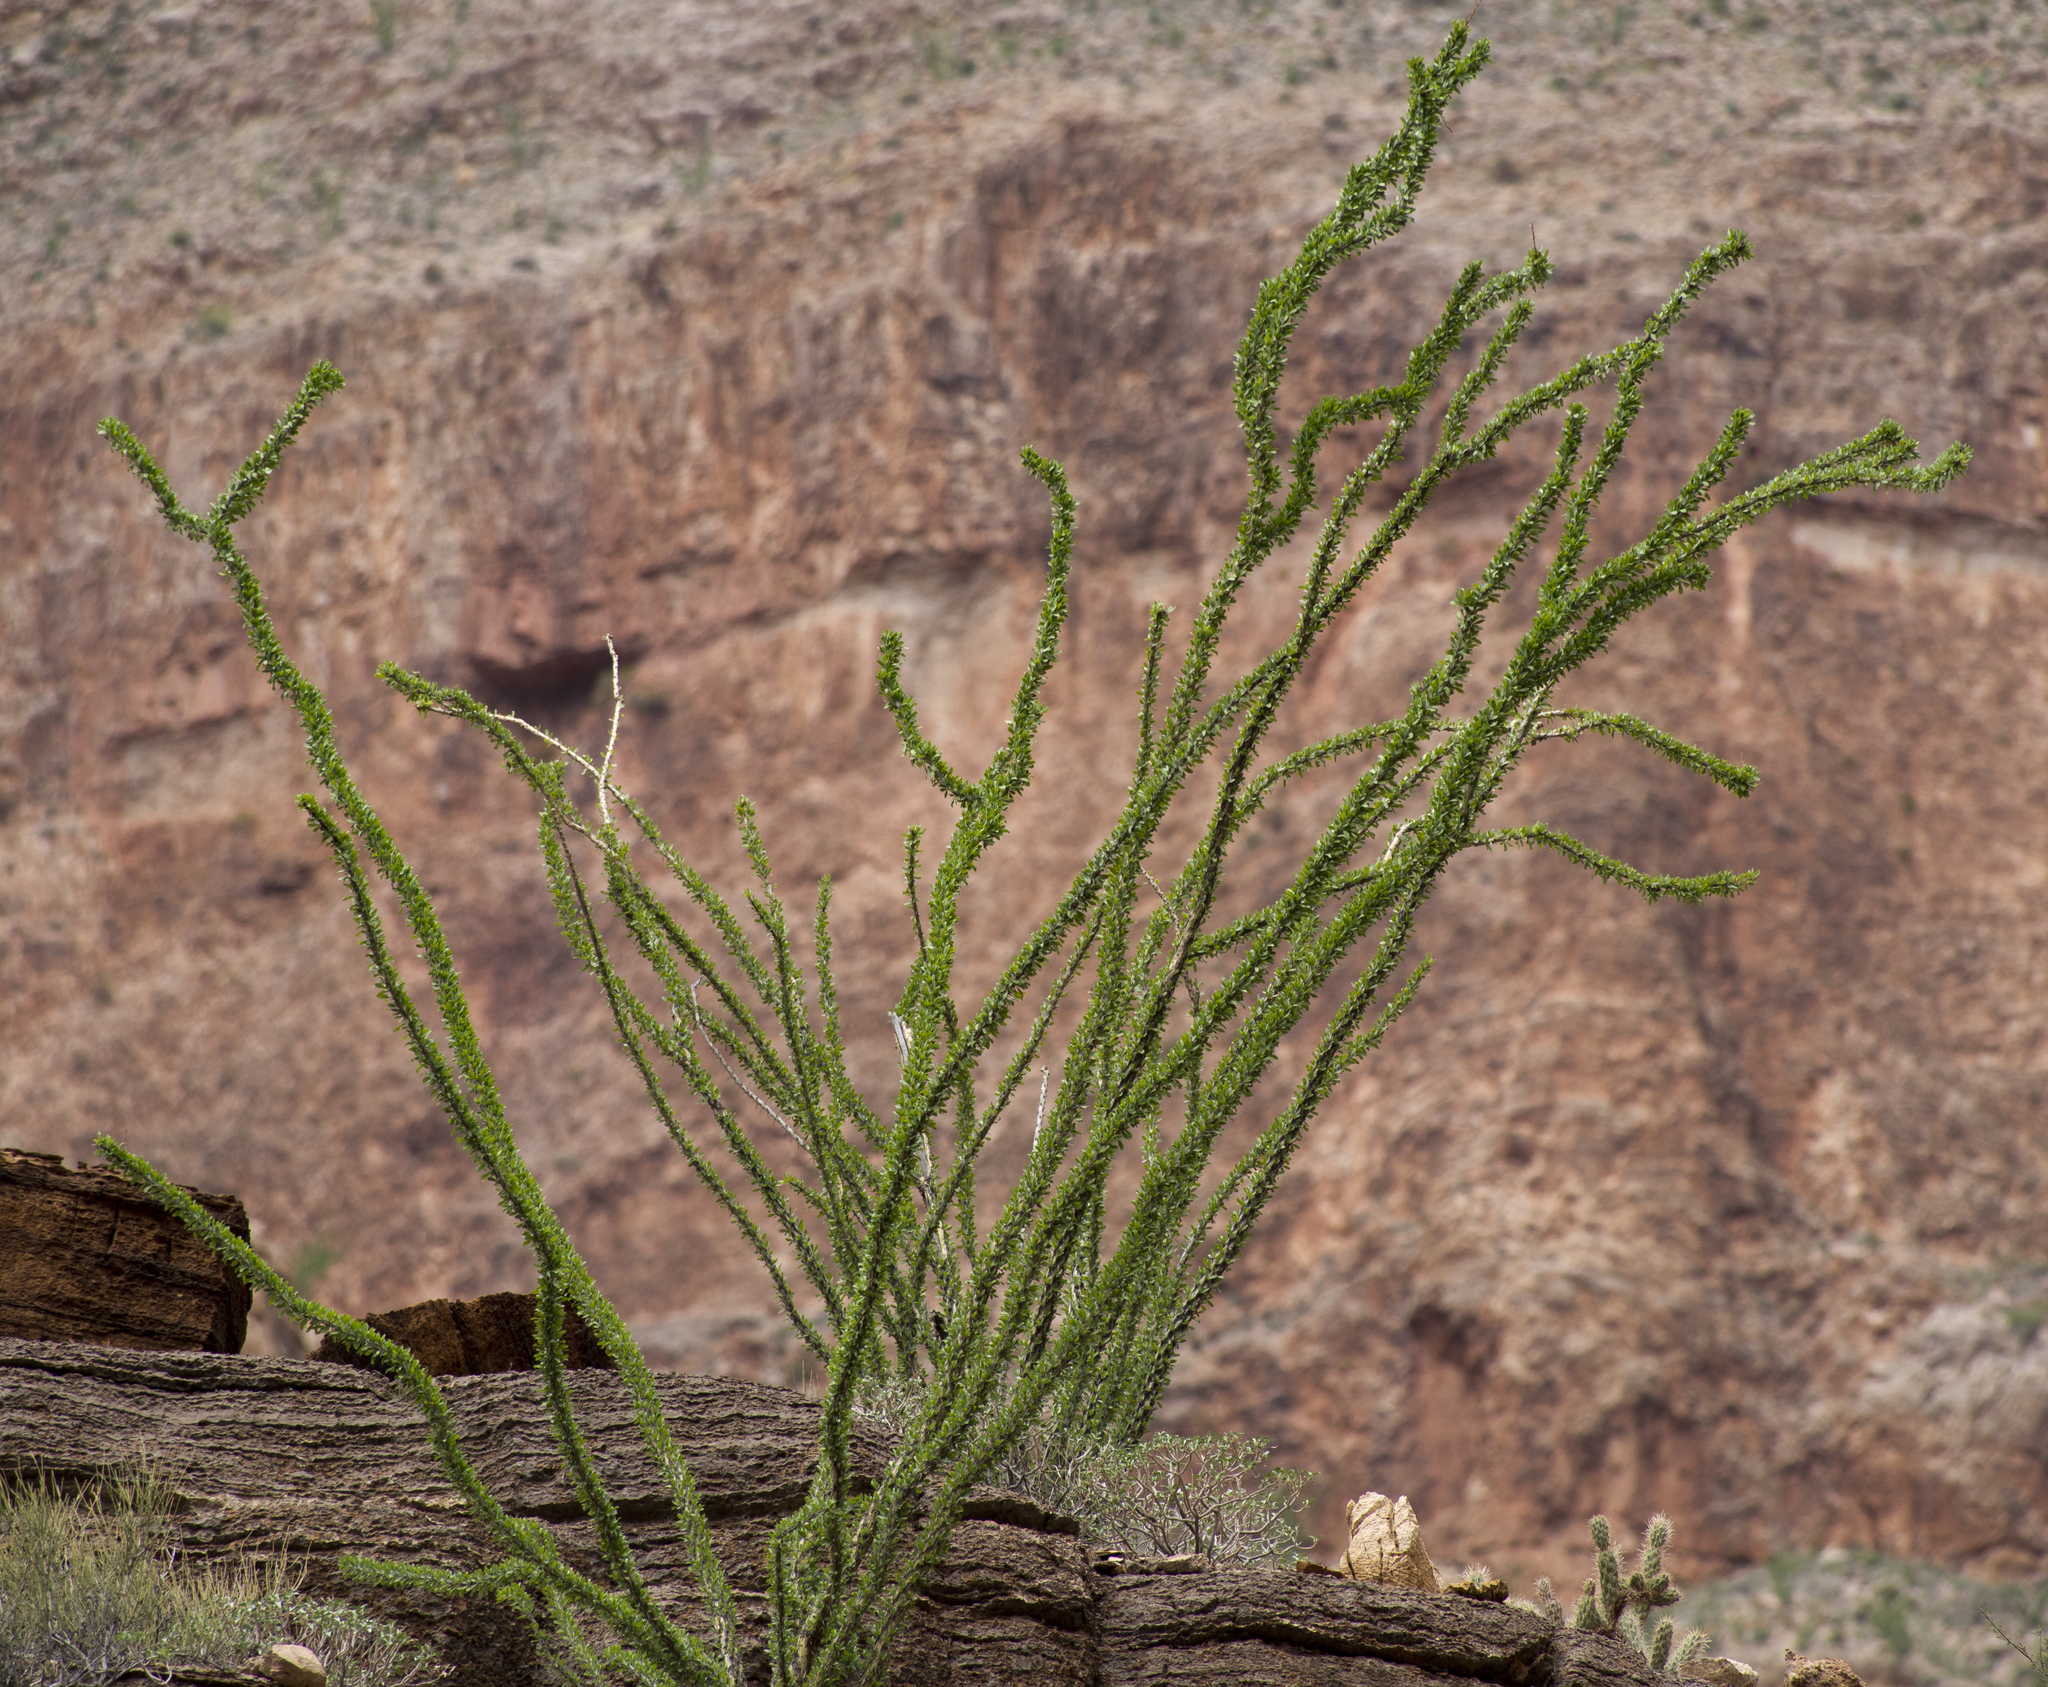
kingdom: Plantae
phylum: Tracheophyta
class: Magnoliopsida
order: Ericales
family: Fouquieriaceae
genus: Fouquieria
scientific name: Fouquieria splendens
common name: Vine-cactus
